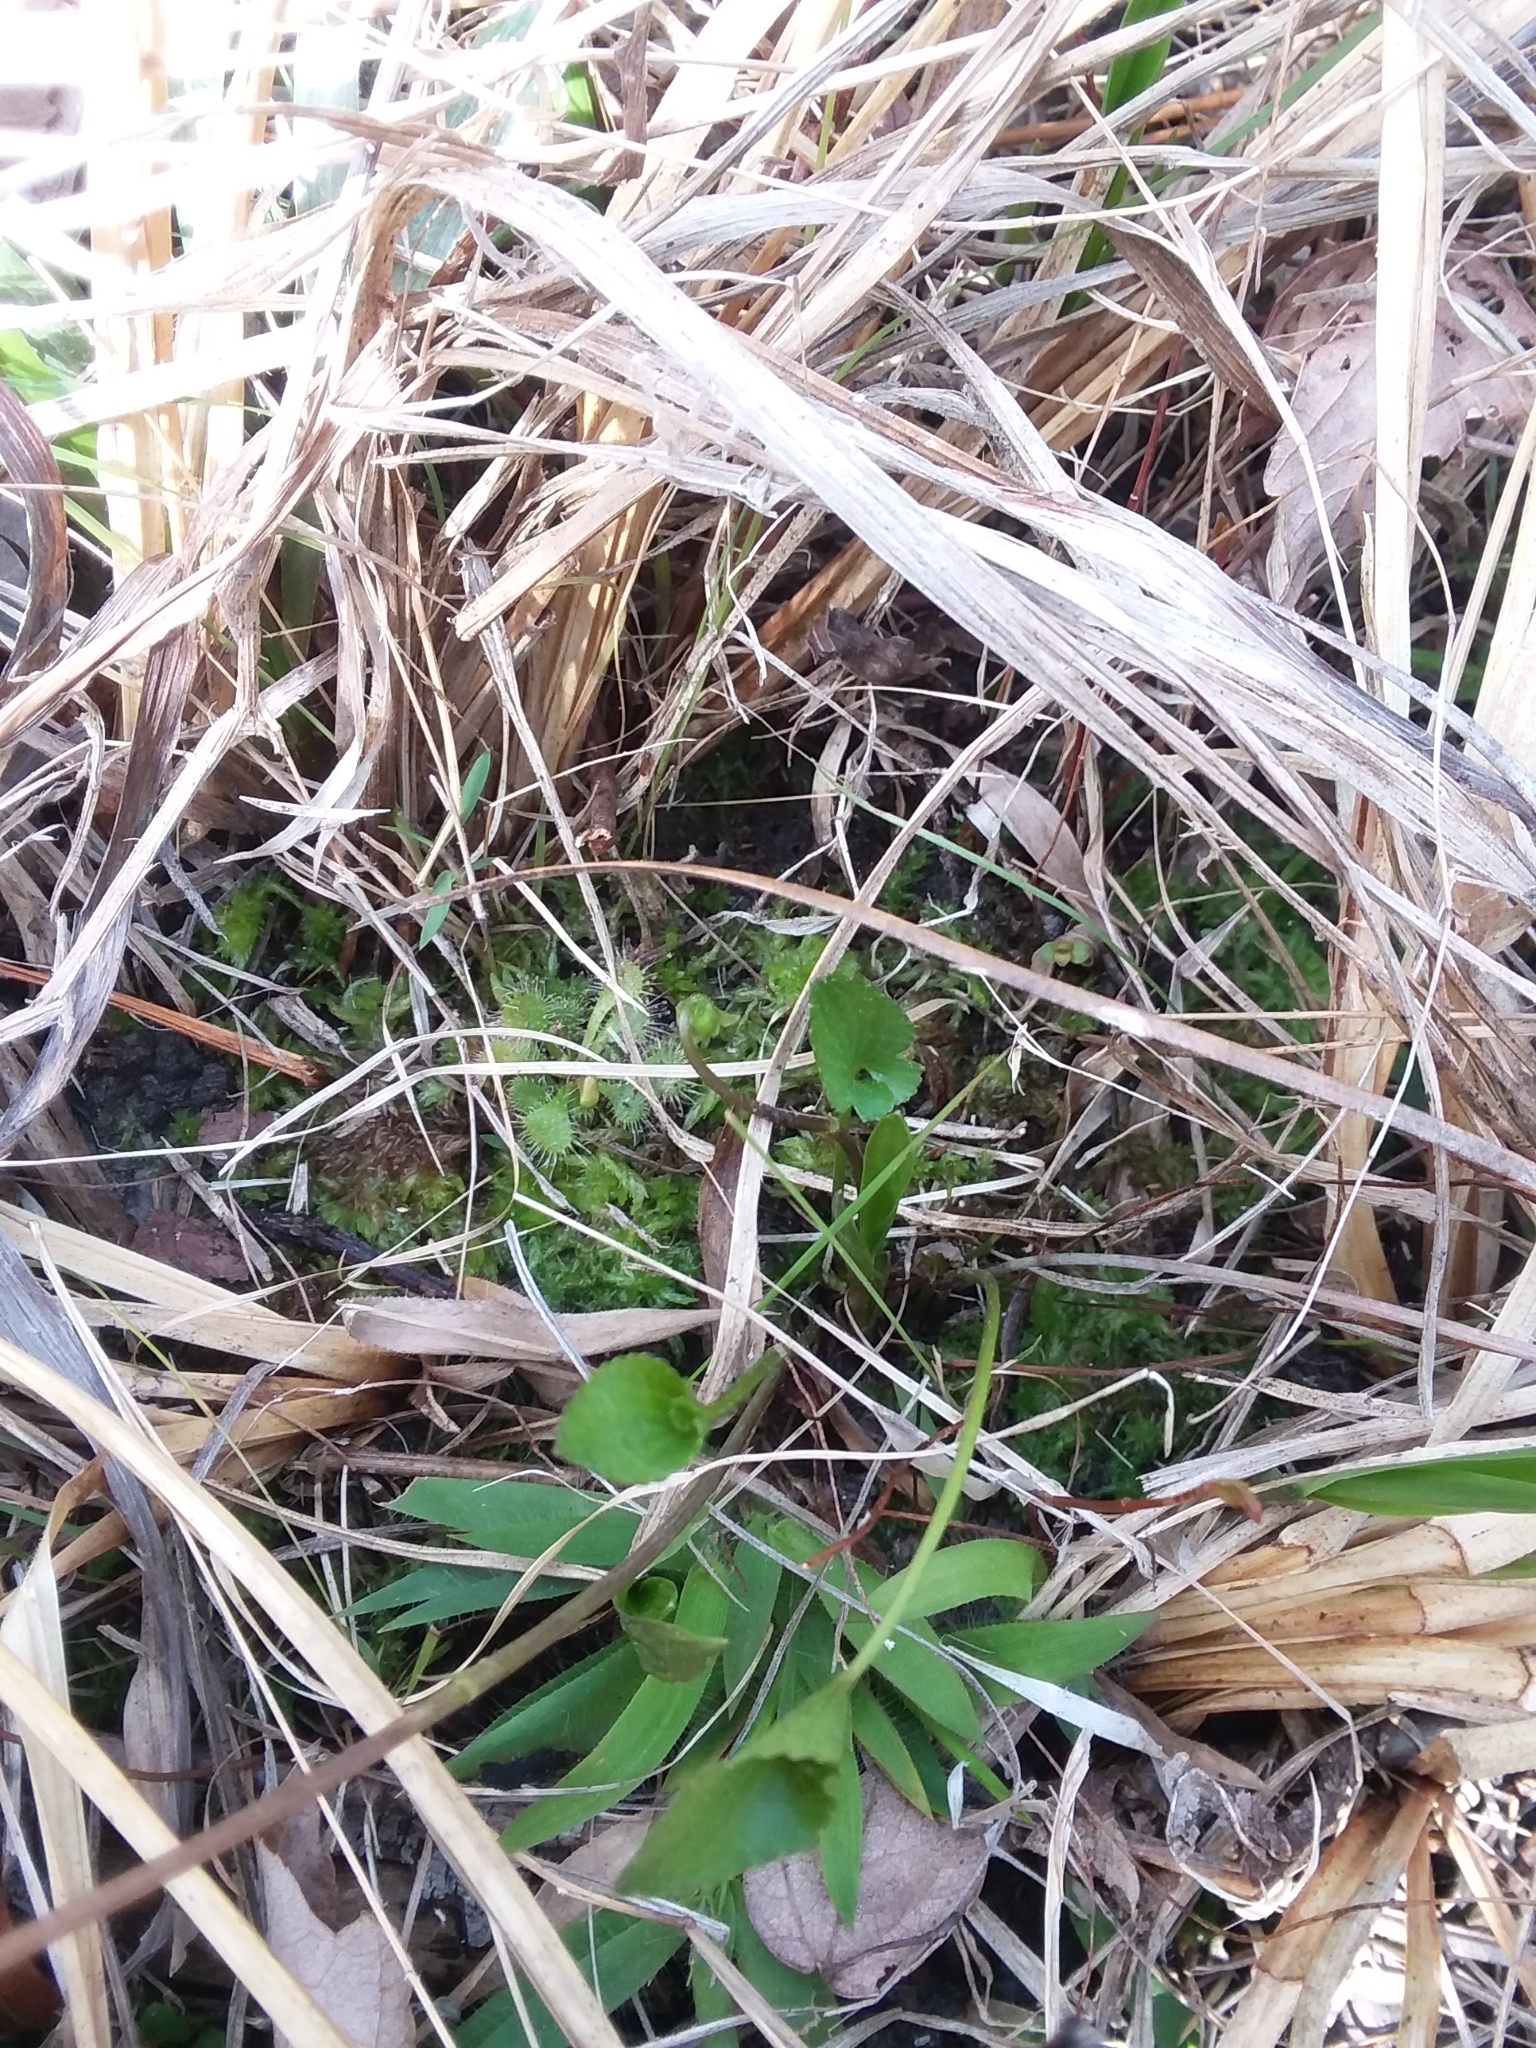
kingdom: Plantae
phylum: Tracheophyta
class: Magnoliopsida
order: Malpighiales
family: Violaceae
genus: Viola
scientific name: Viola septemloba
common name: Southern coast violet
